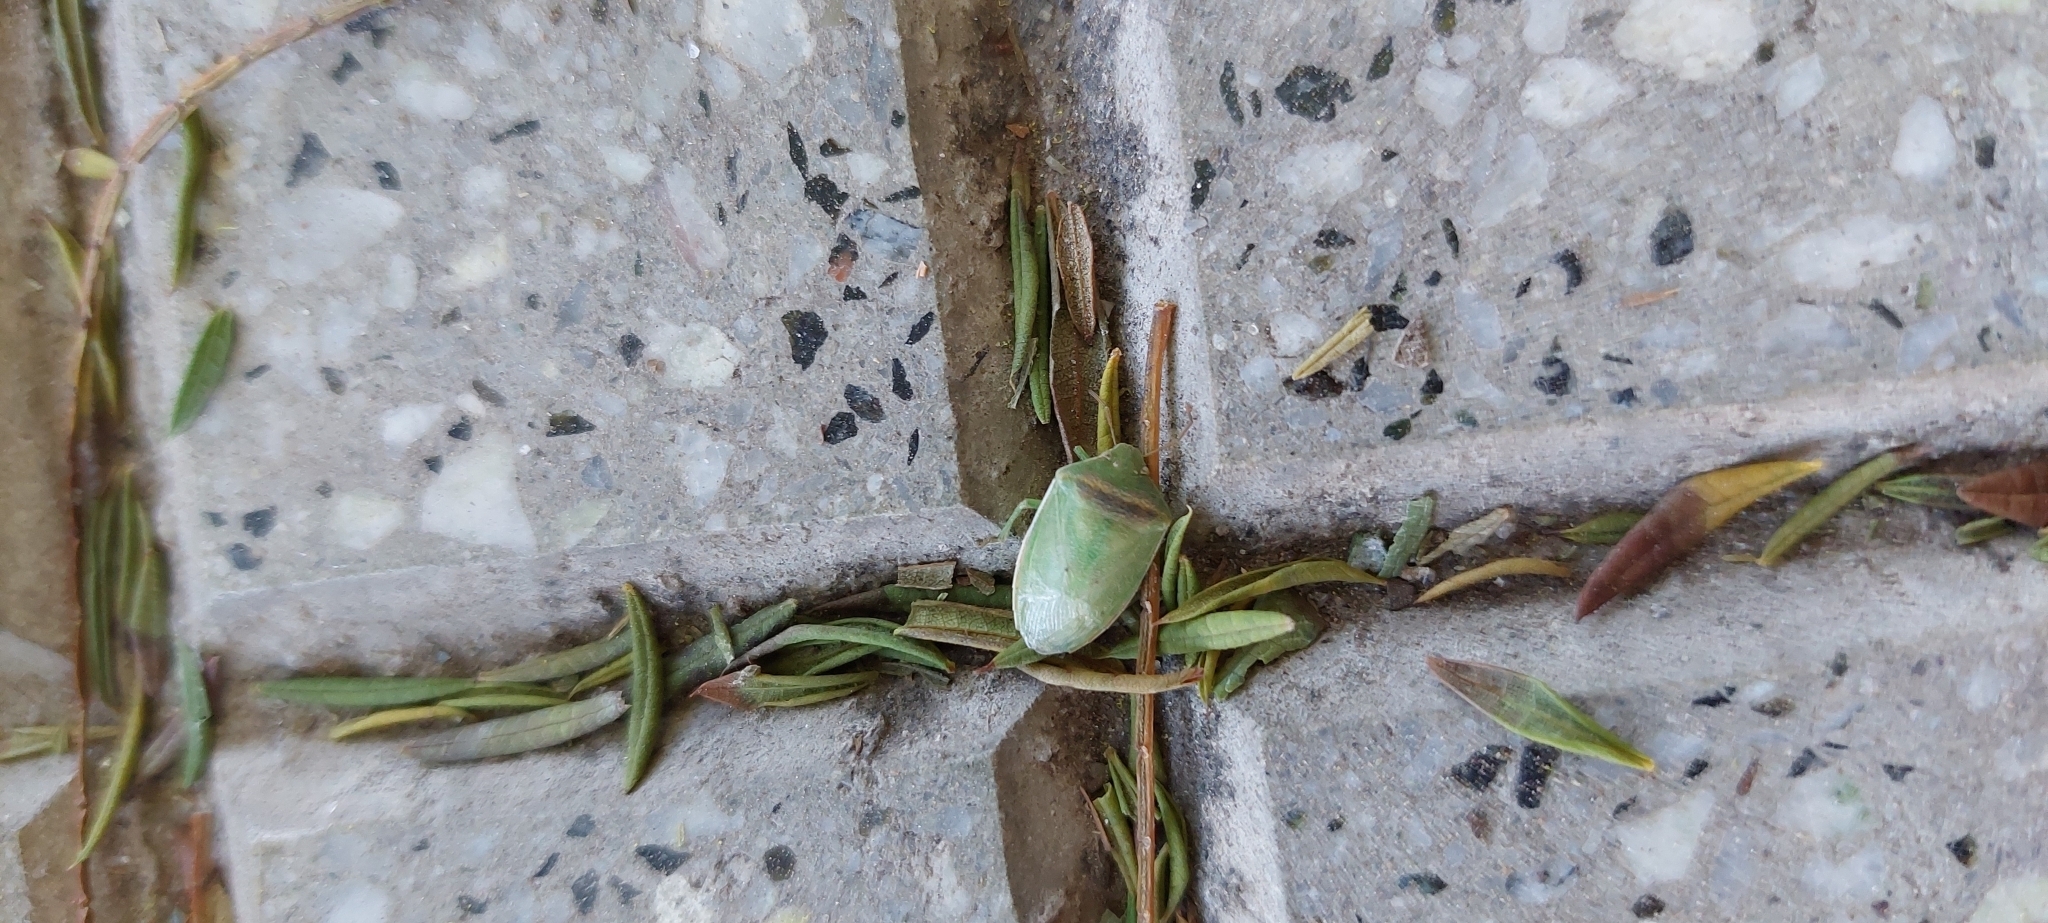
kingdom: Animalia
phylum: Arthropoda
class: Insecta
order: Hemiptera
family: Pentatomidae
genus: Piezodorus
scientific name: Piezodorus guildinii
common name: Redbanded stink bug
